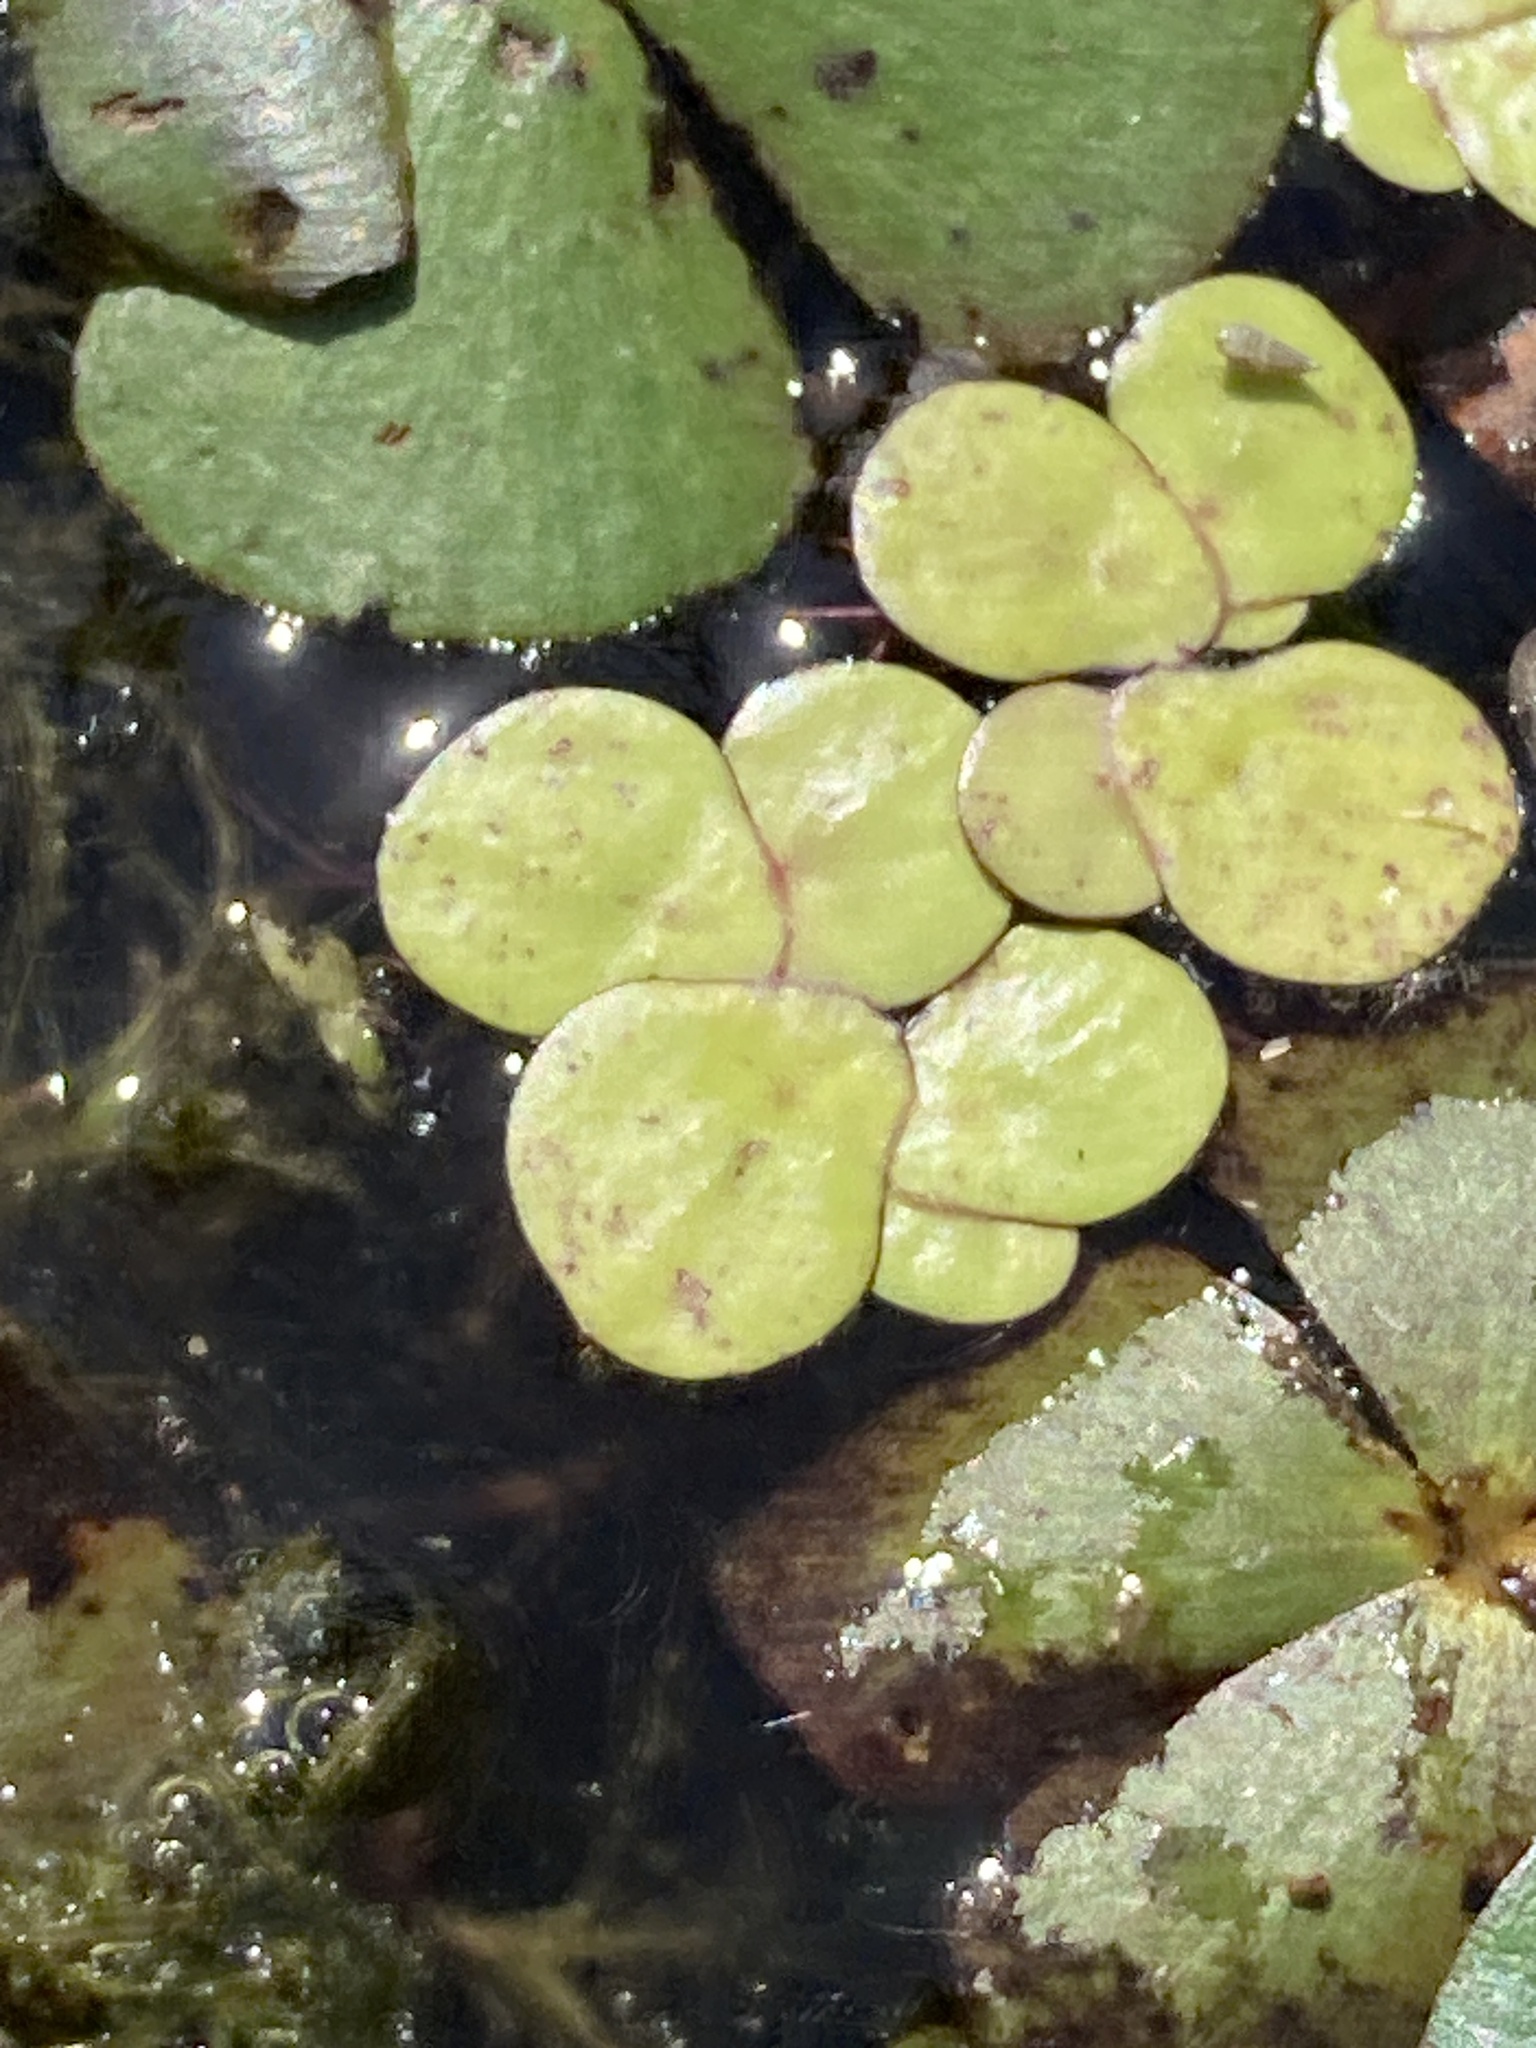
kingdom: Plantae
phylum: Tracheophyta
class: Liliopsida
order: Alismatales
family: Araceae
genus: Spirodela
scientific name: Spirodela polyrhiza
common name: Great duckweed
